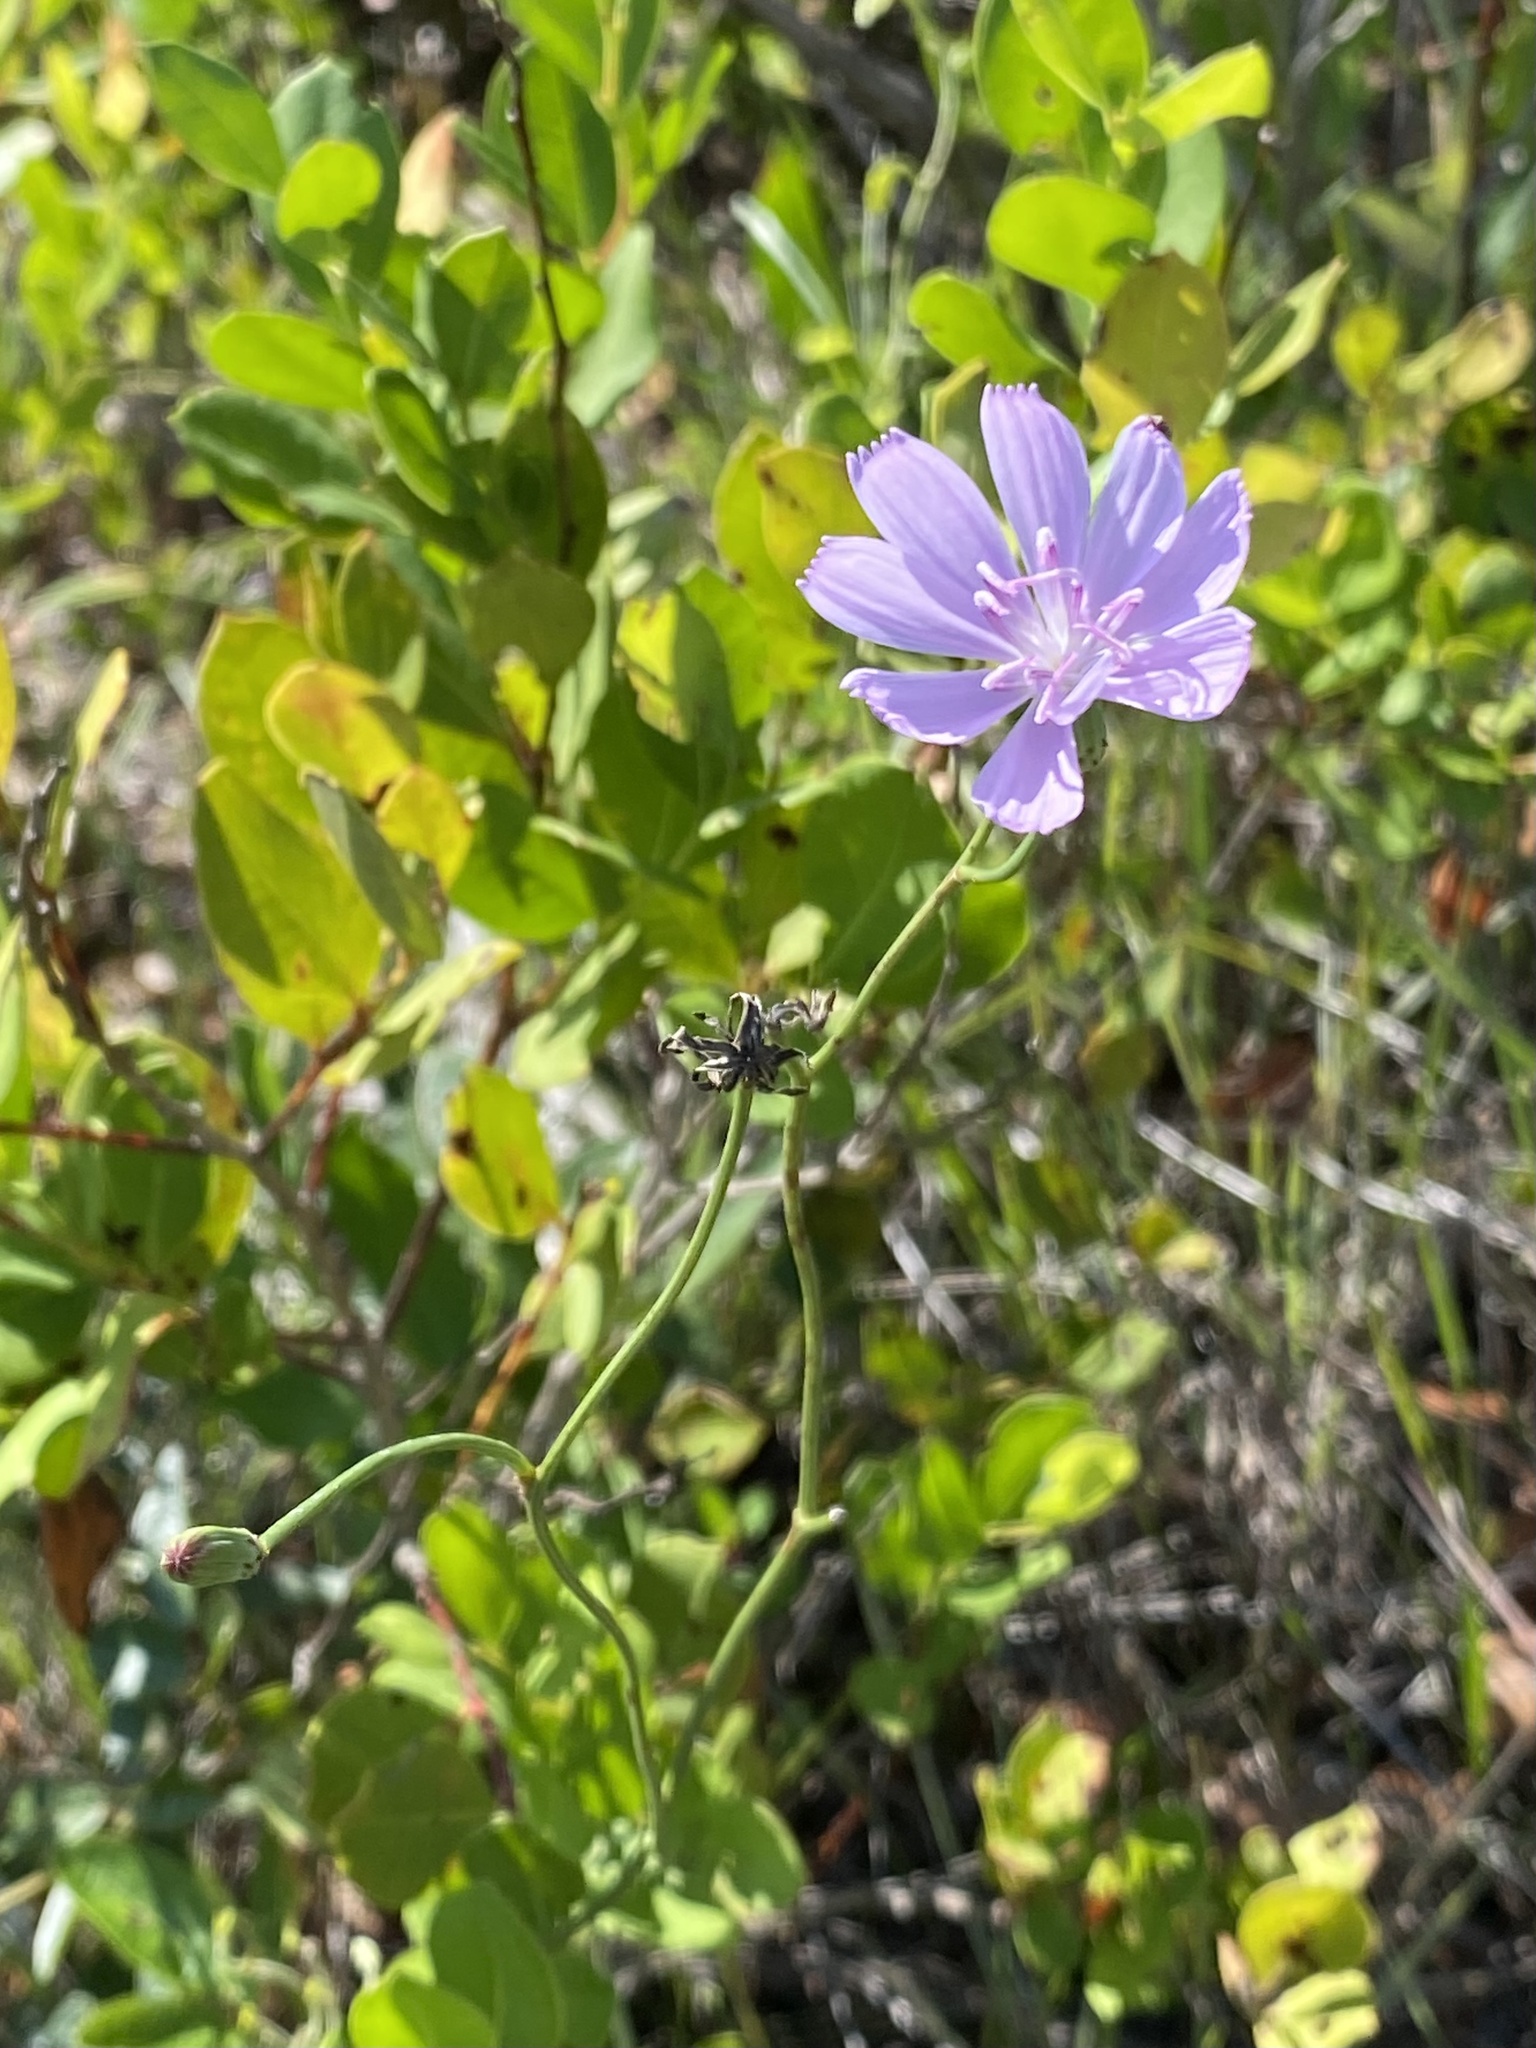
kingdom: Plantae
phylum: Tracheophyta
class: Magnoliopsida
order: Asterales
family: Asteraceae
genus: Lygodesmia
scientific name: Lygodesmia aphylla
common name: Rose-rush
